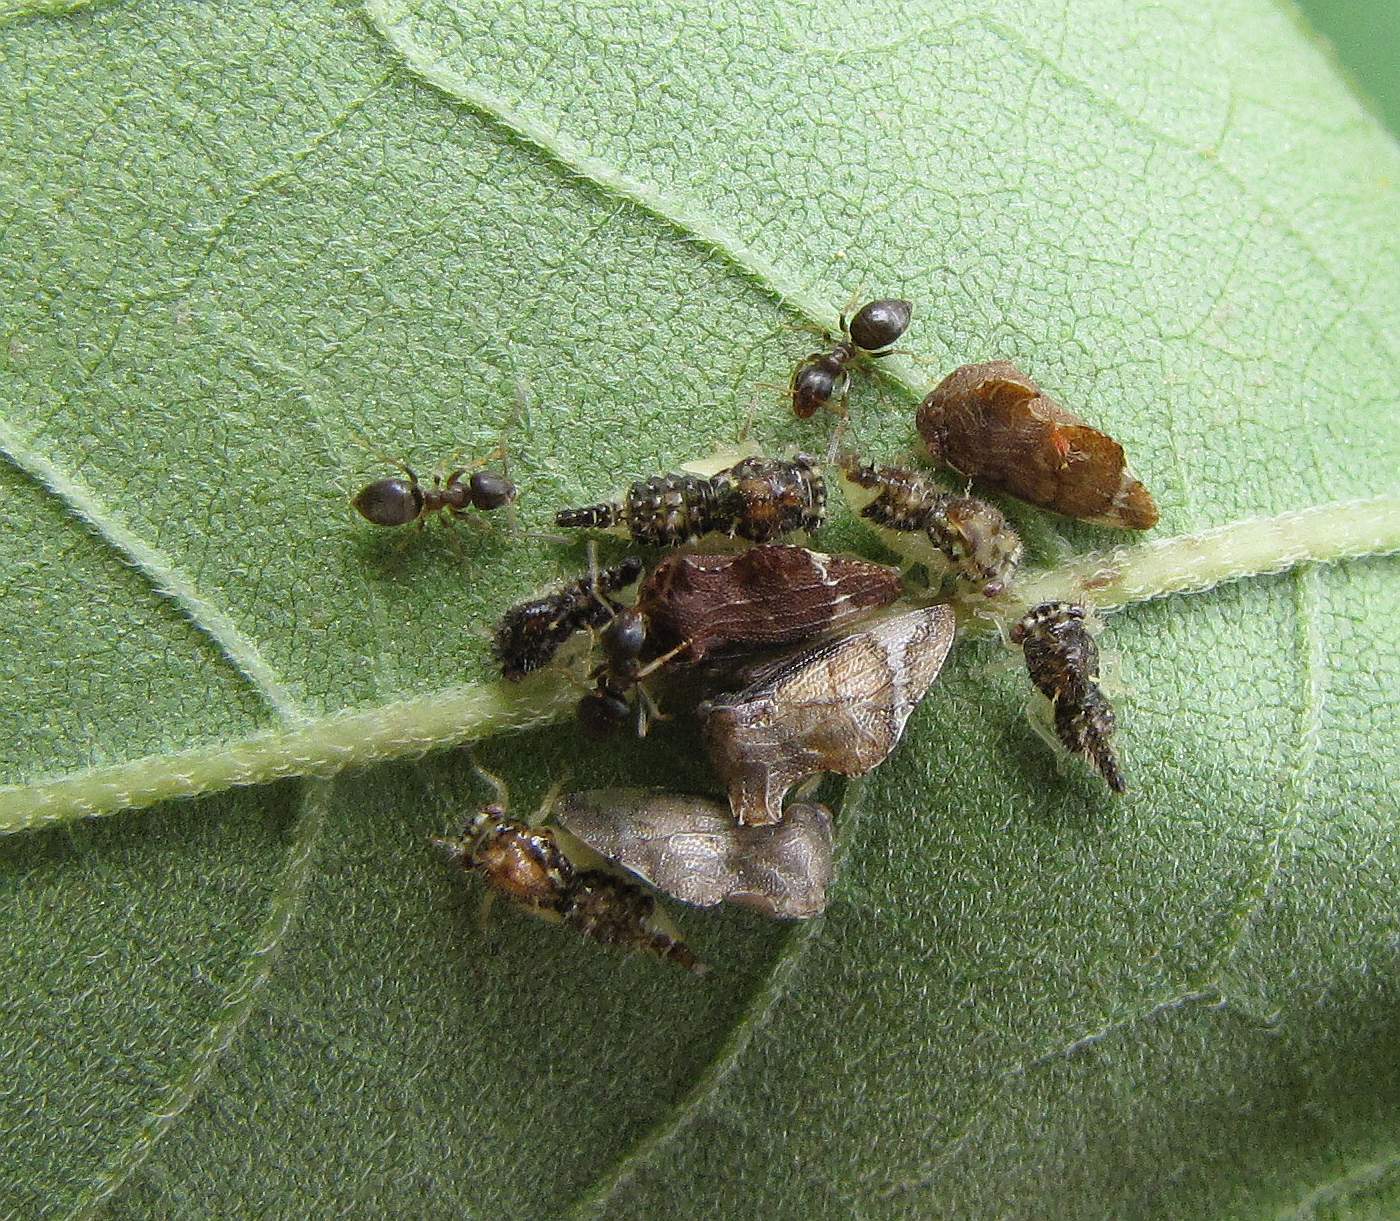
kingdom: Animalia
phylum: Arthropoda
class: Insecta
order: Hemiptera
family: Membracidae
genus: Entylia
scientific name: Entylia carinata
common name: Keeled treehopper
